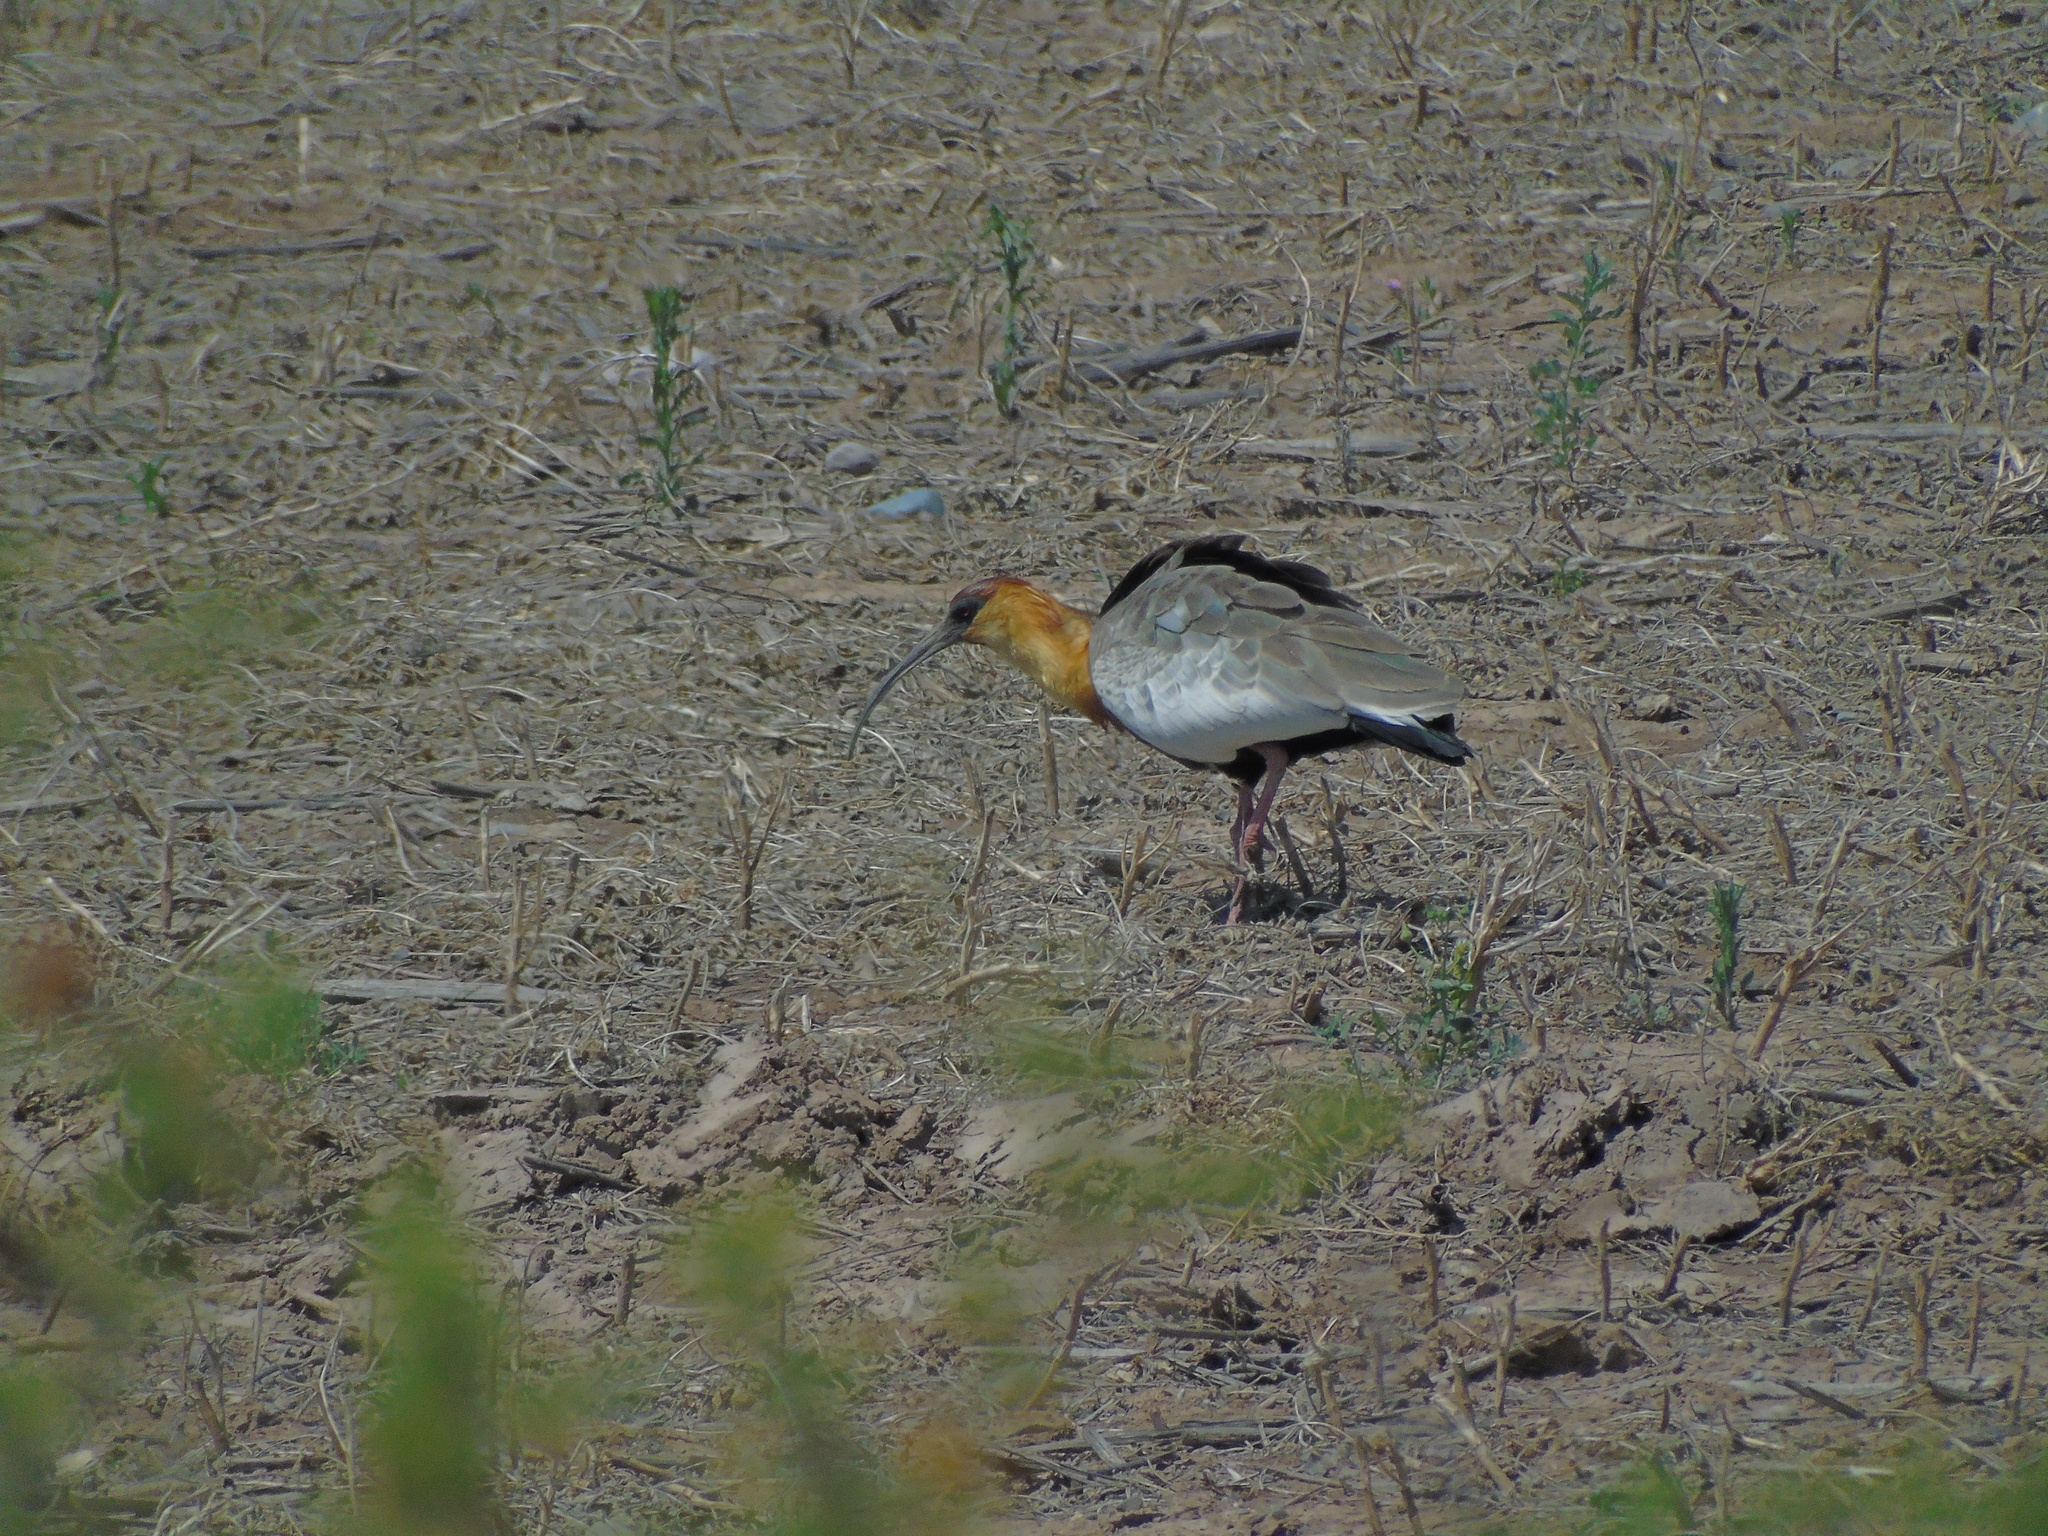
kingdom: Animalia
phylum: Chordata
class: Aves
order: Pelecaniformes
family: Threskiornithidae
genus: Theristicus
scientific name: Theristicus caudatus
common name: Buff-necked ibis
